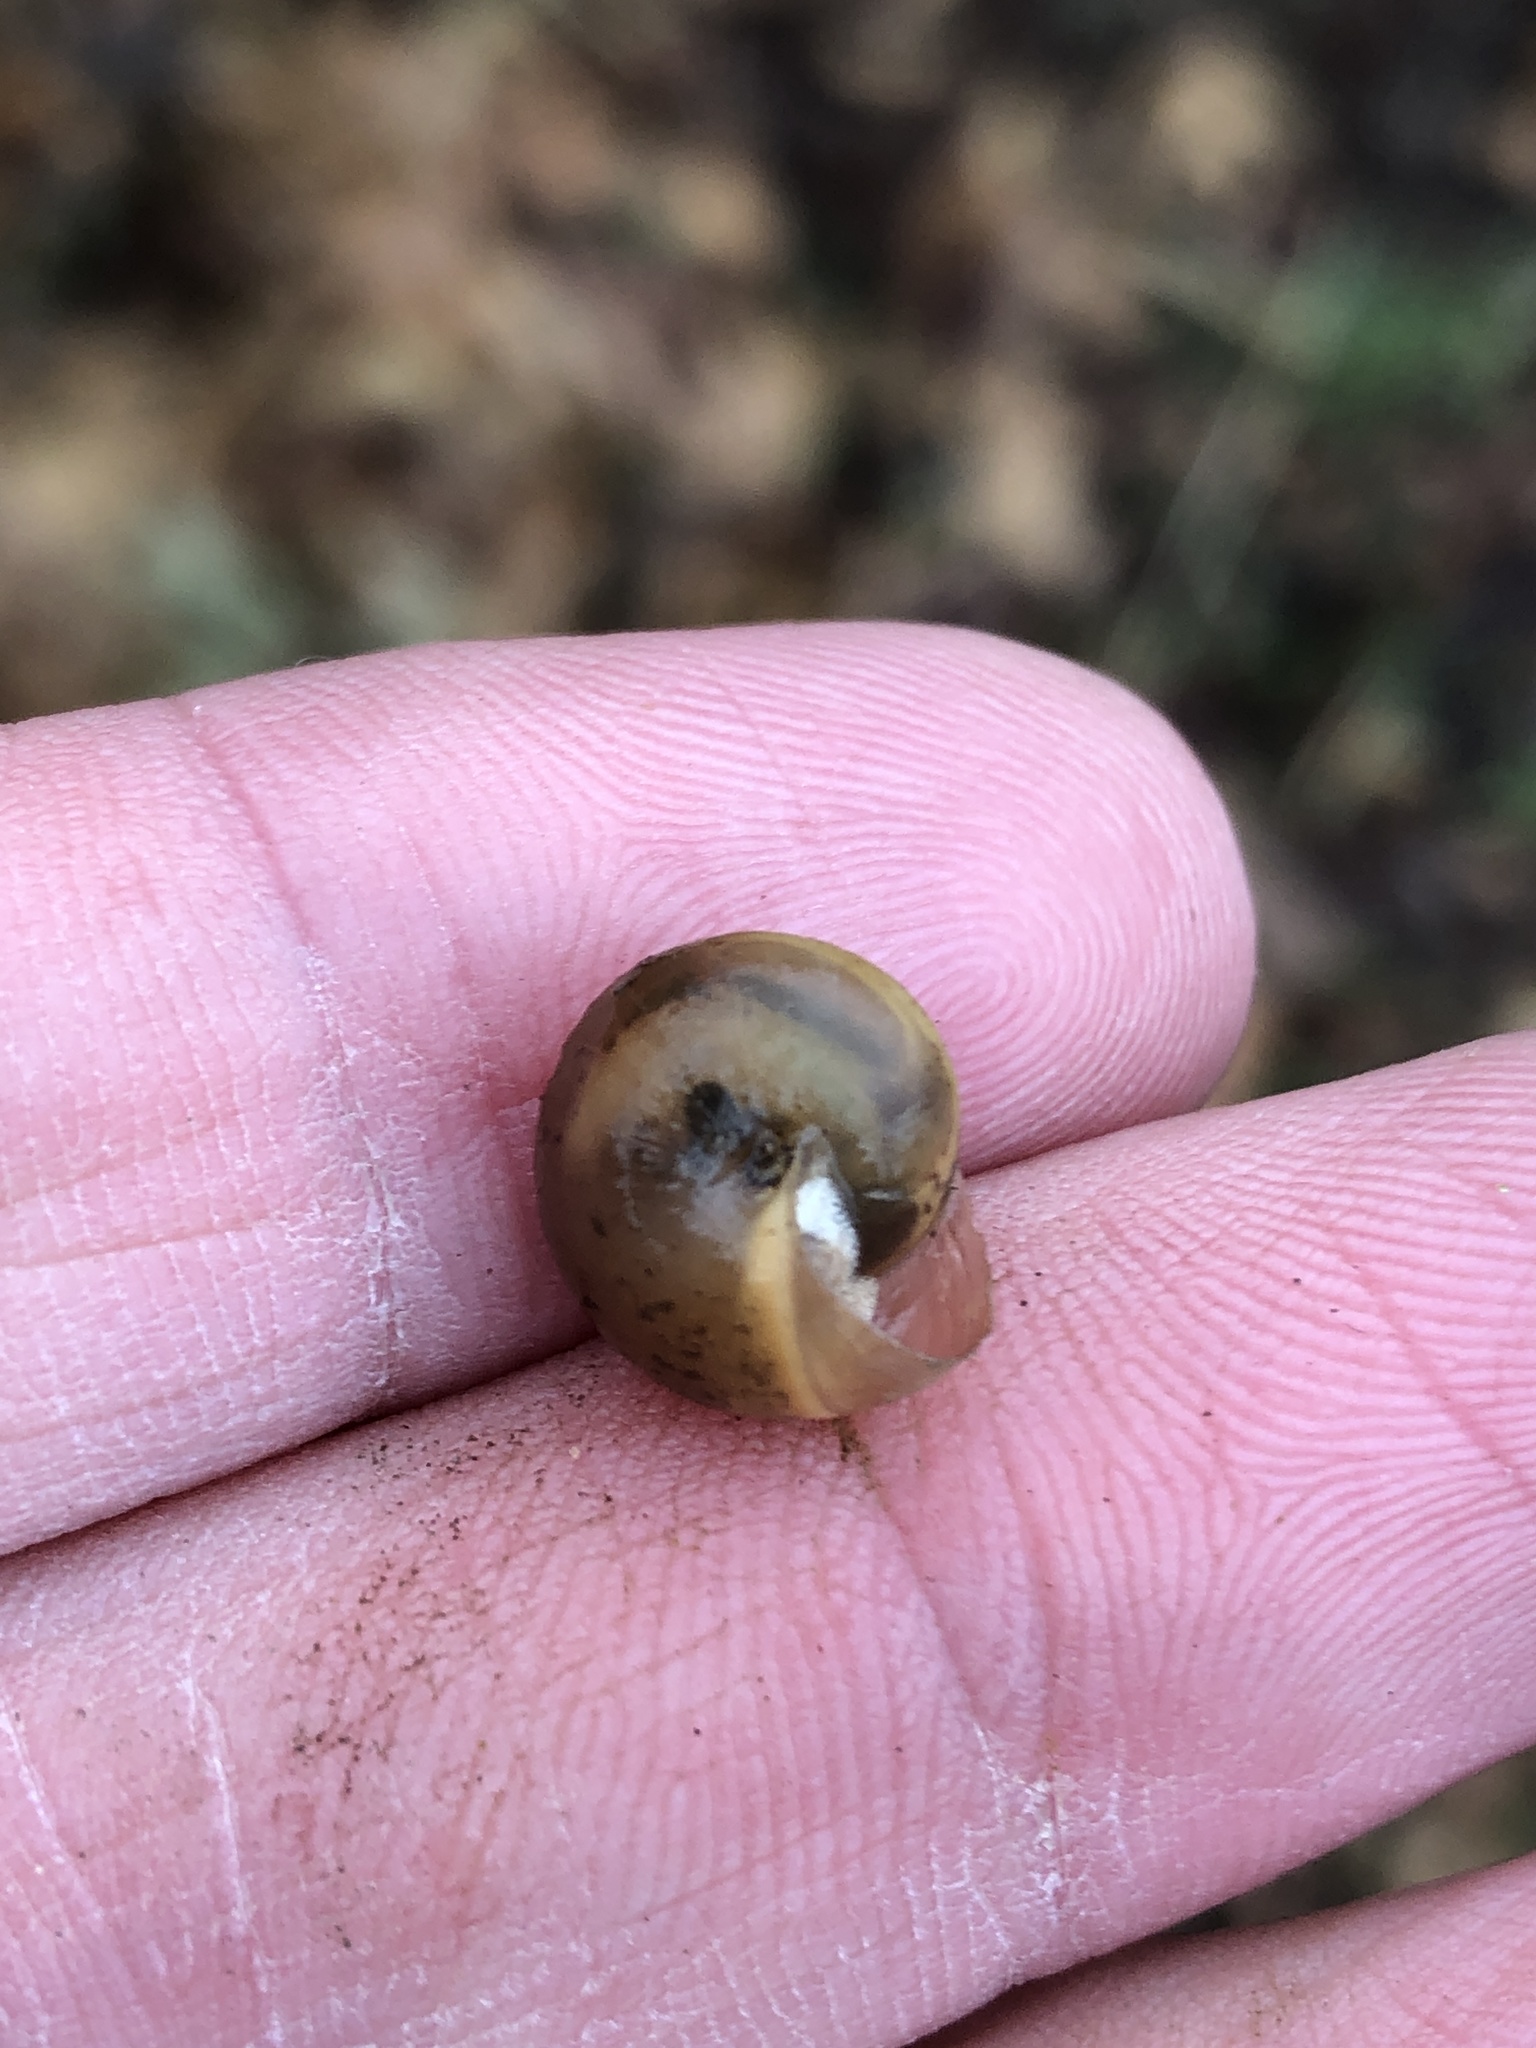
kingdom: Animalia
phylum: Mollusca
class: Gastropoda
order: Stylommatophora
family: Camaenidae
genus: Bradybaena
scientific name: Bradybaena similaris
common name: Asian trampsnail
